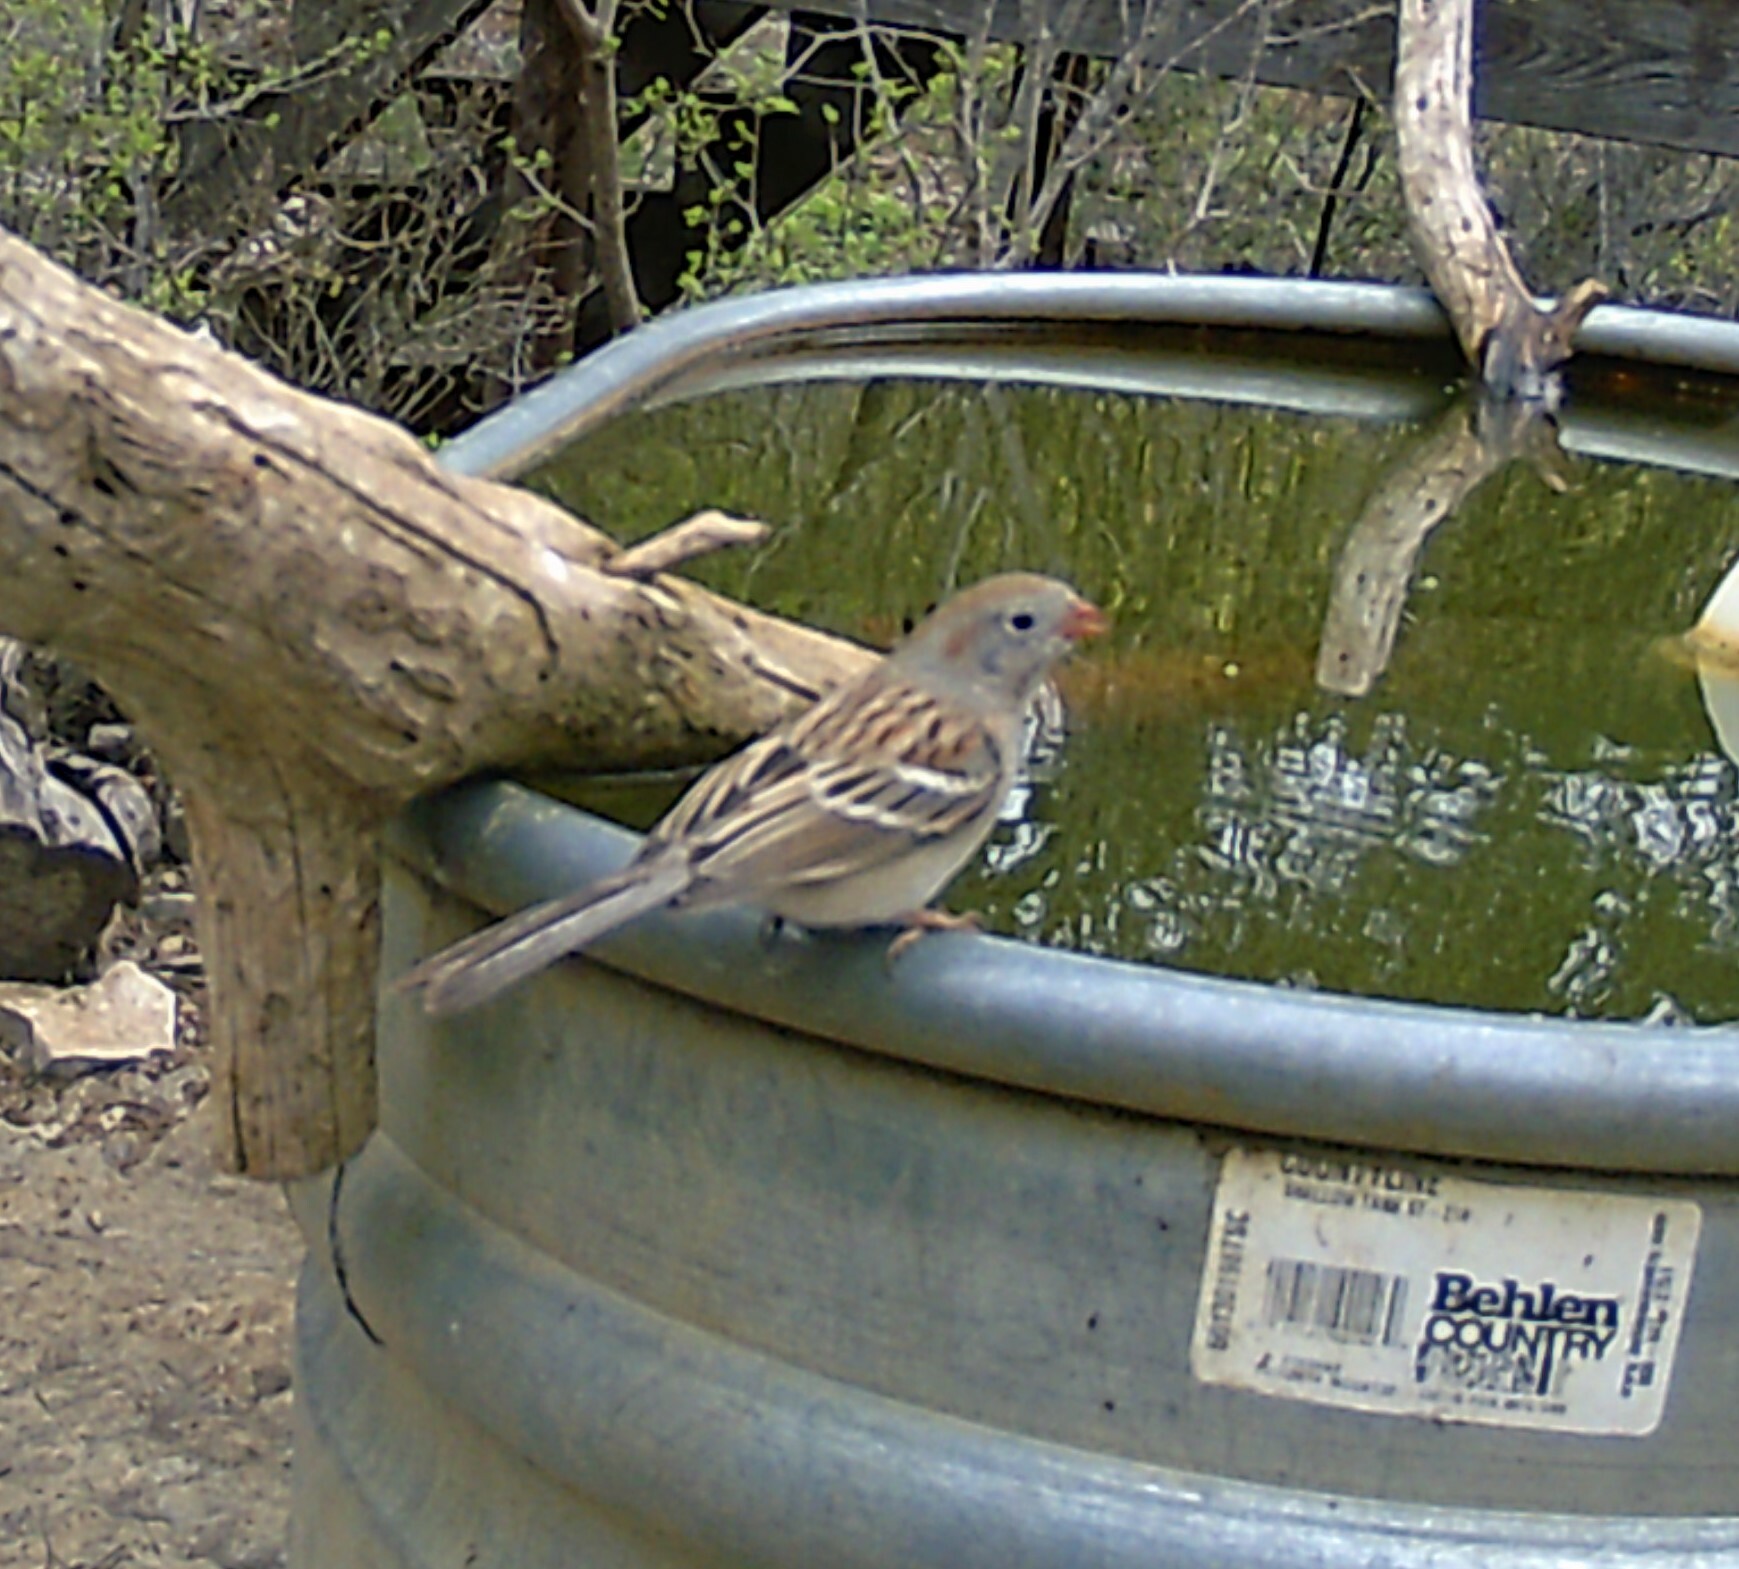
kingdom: Animalia
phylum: Chordata
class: Aves
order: Passeriformes
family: Passerellidae
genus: Spizella
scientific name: Spizella pusilla
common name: Field sparrow
